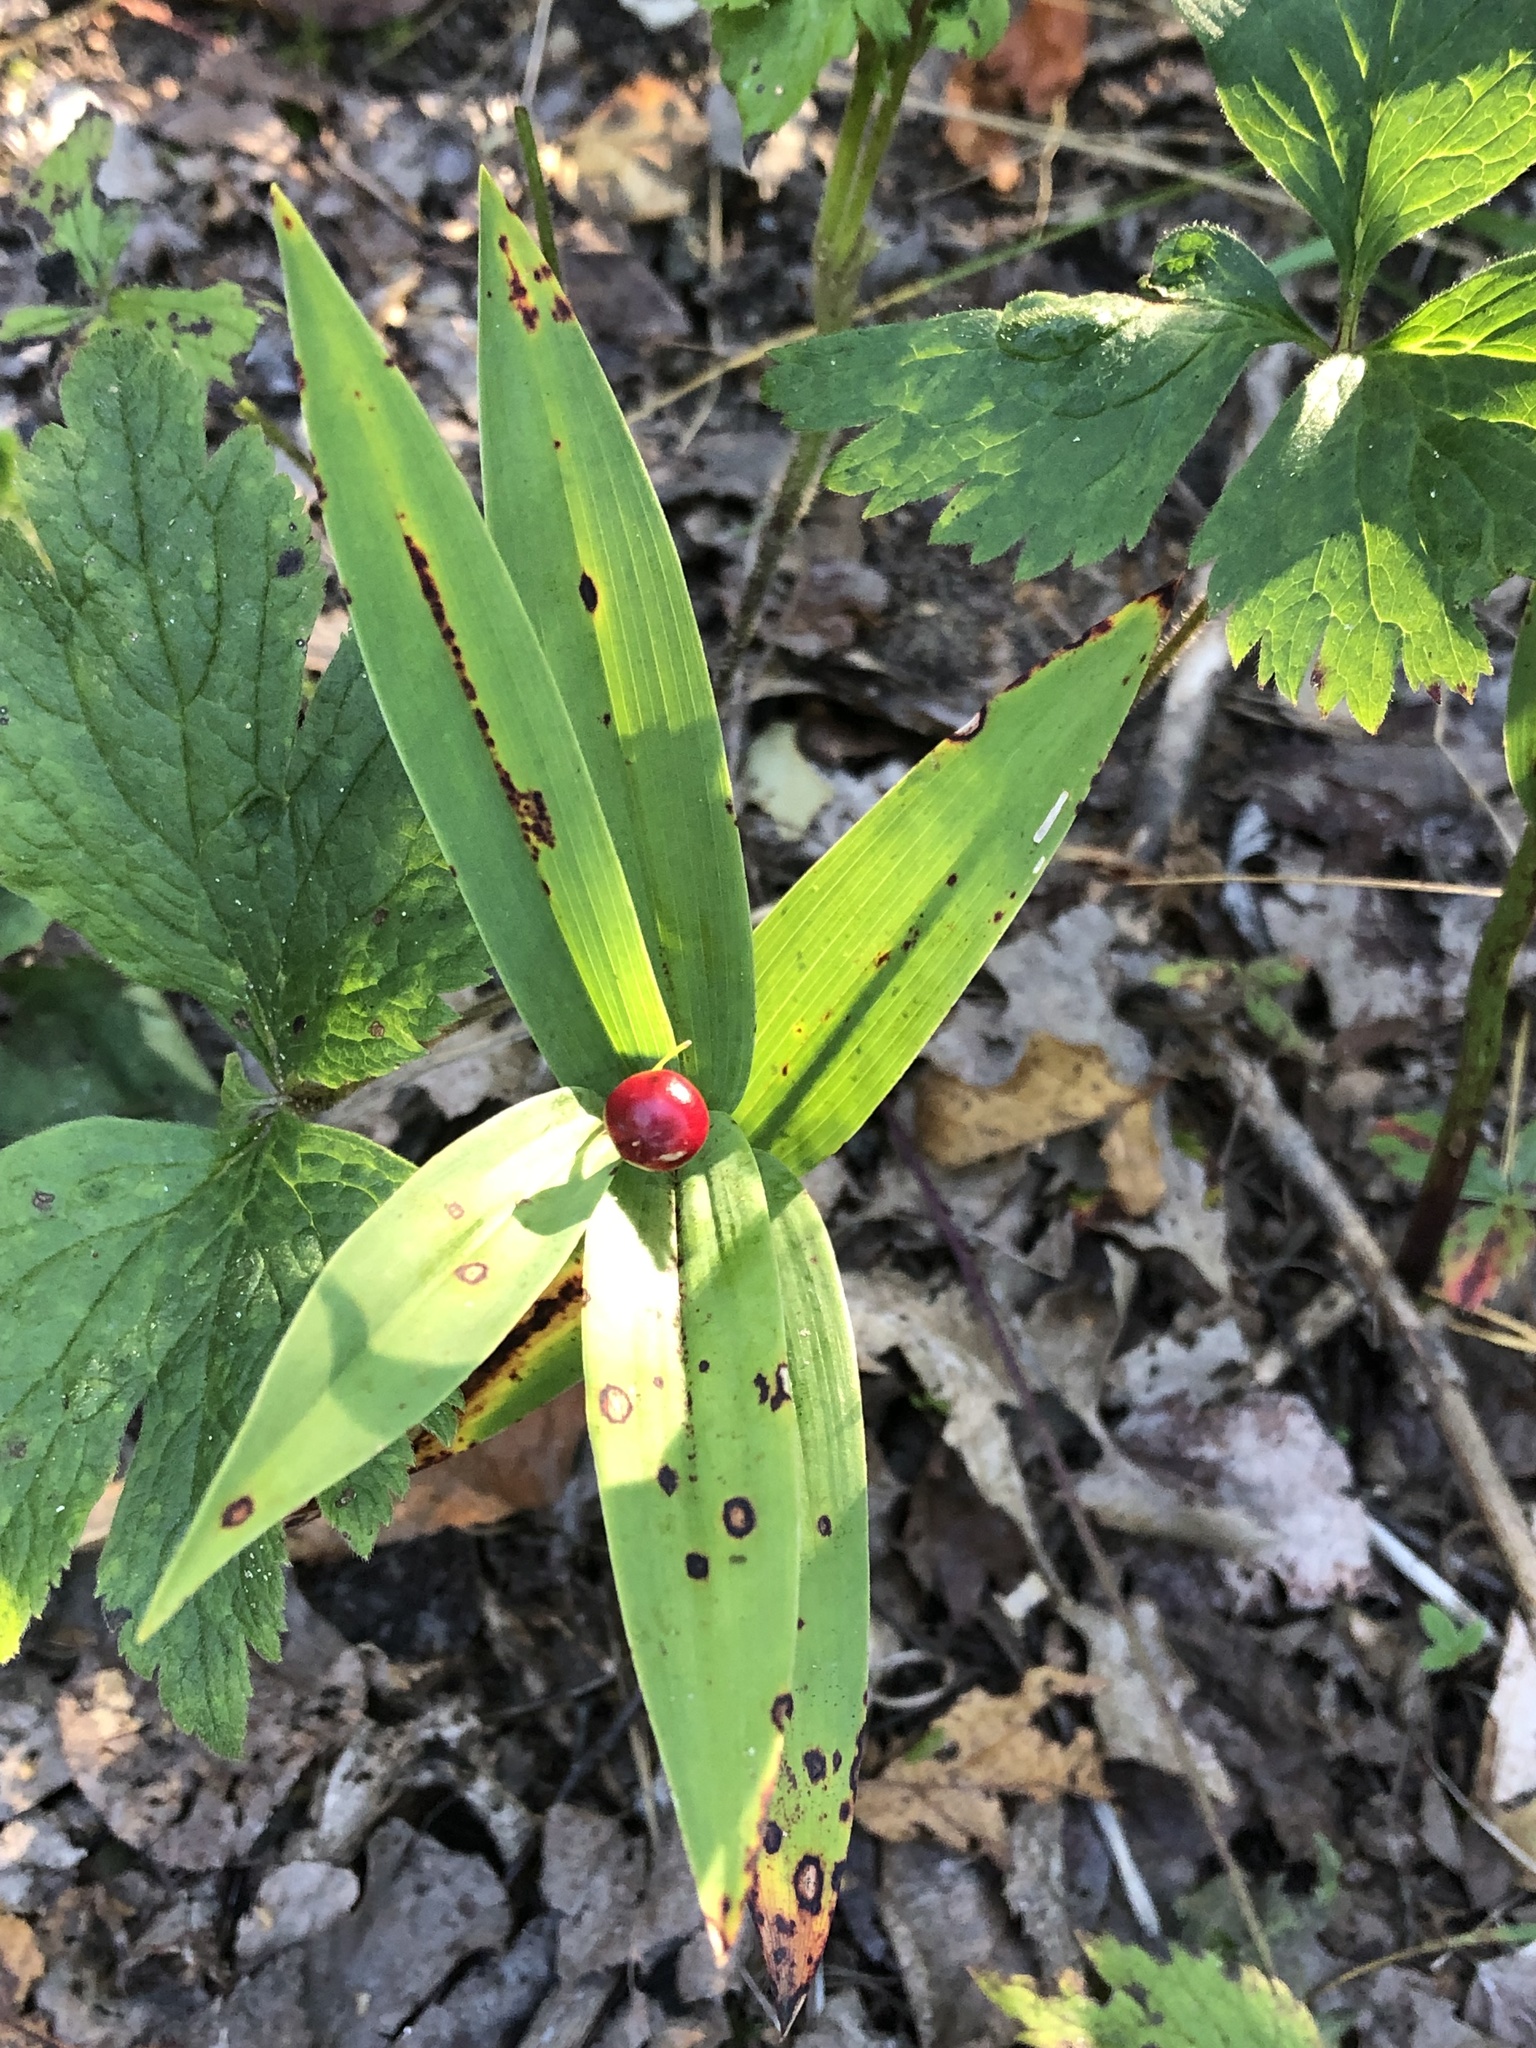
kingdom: Plantae
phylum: Tracheophyta
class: Liliopsida
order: Asparagales
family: Asparagaceae
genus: Maianthemum
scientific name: Maianthemum stellatum
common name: Little false solomon's seal
